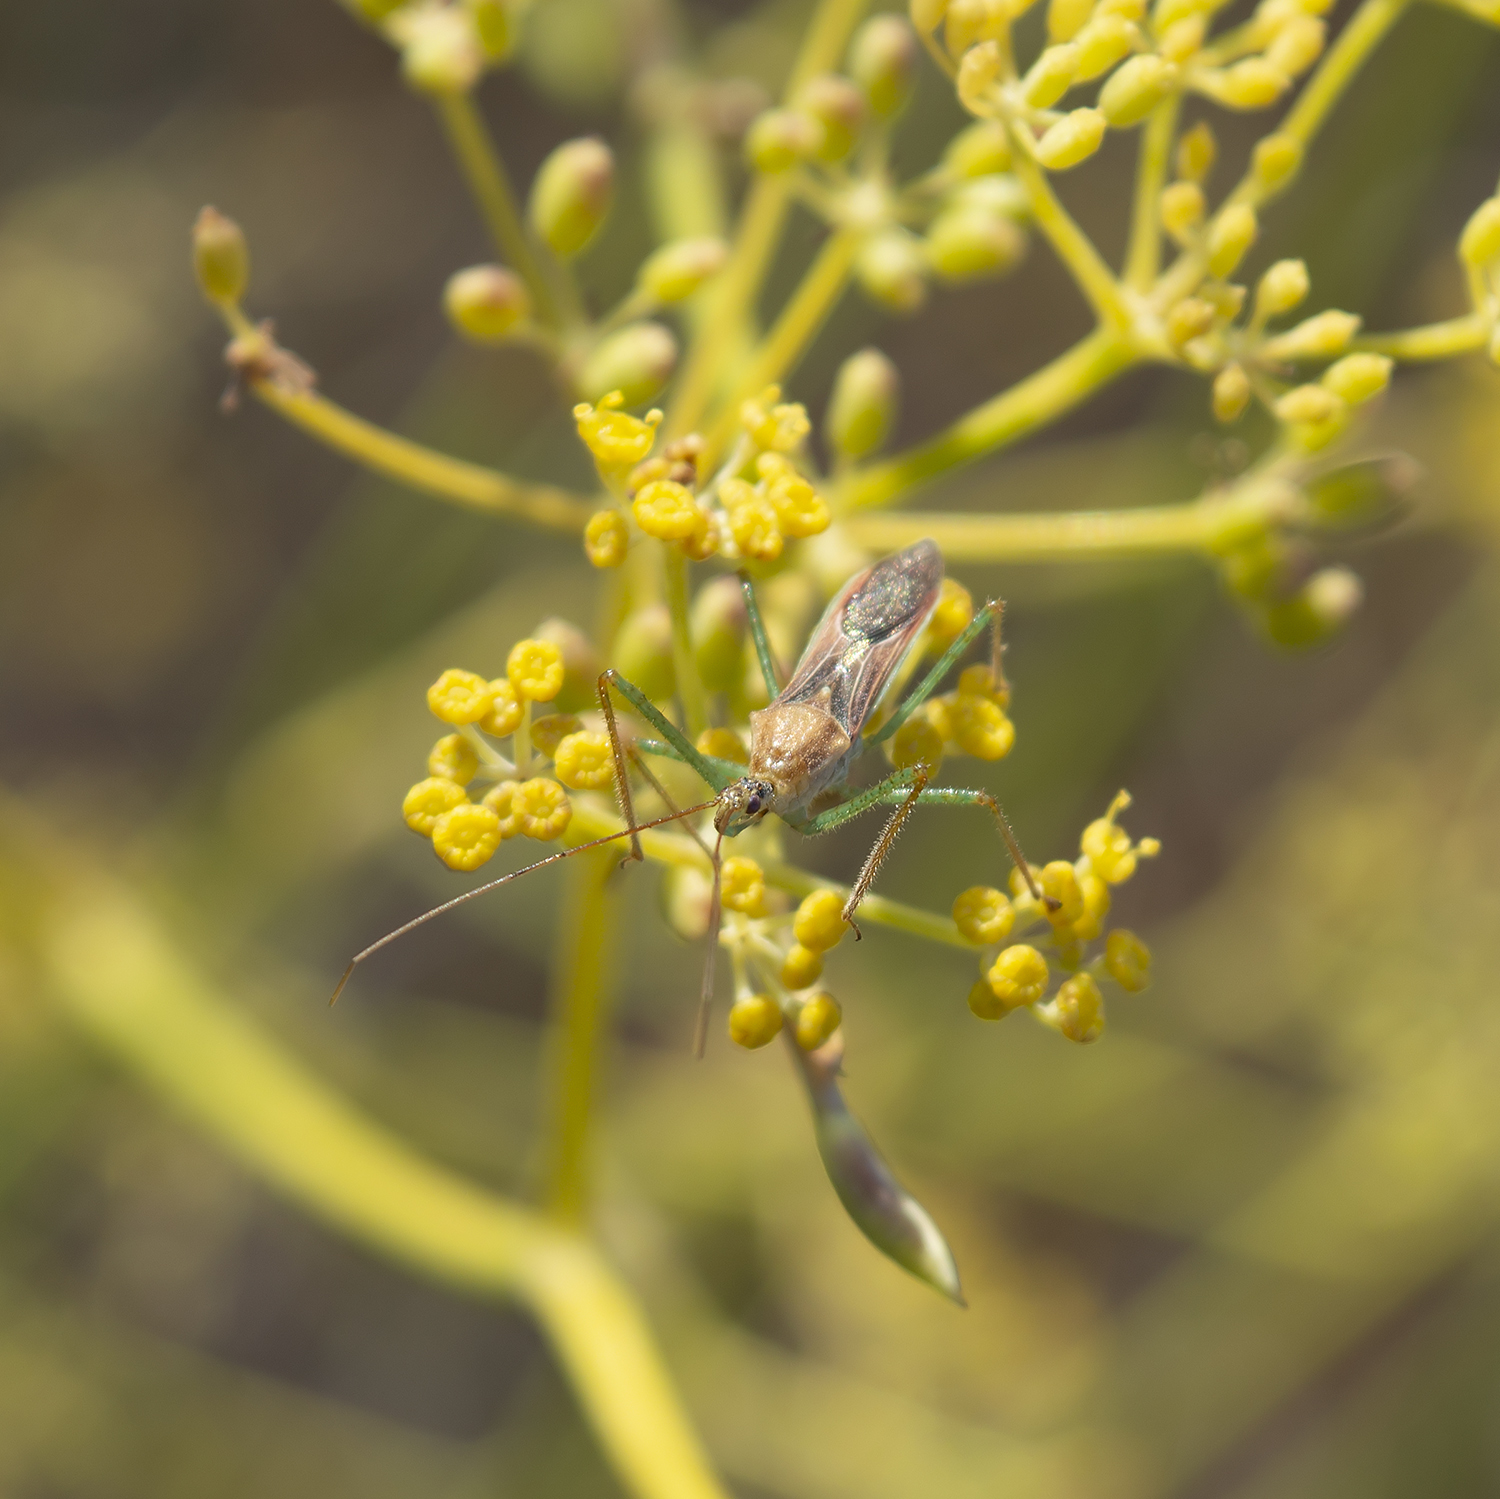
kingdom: Animalia
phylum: Arthropoda
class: Insecta
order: Hemiptera
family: Reduviidae
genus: Zelus
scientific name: Zelus renardii
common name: Assassin bug
